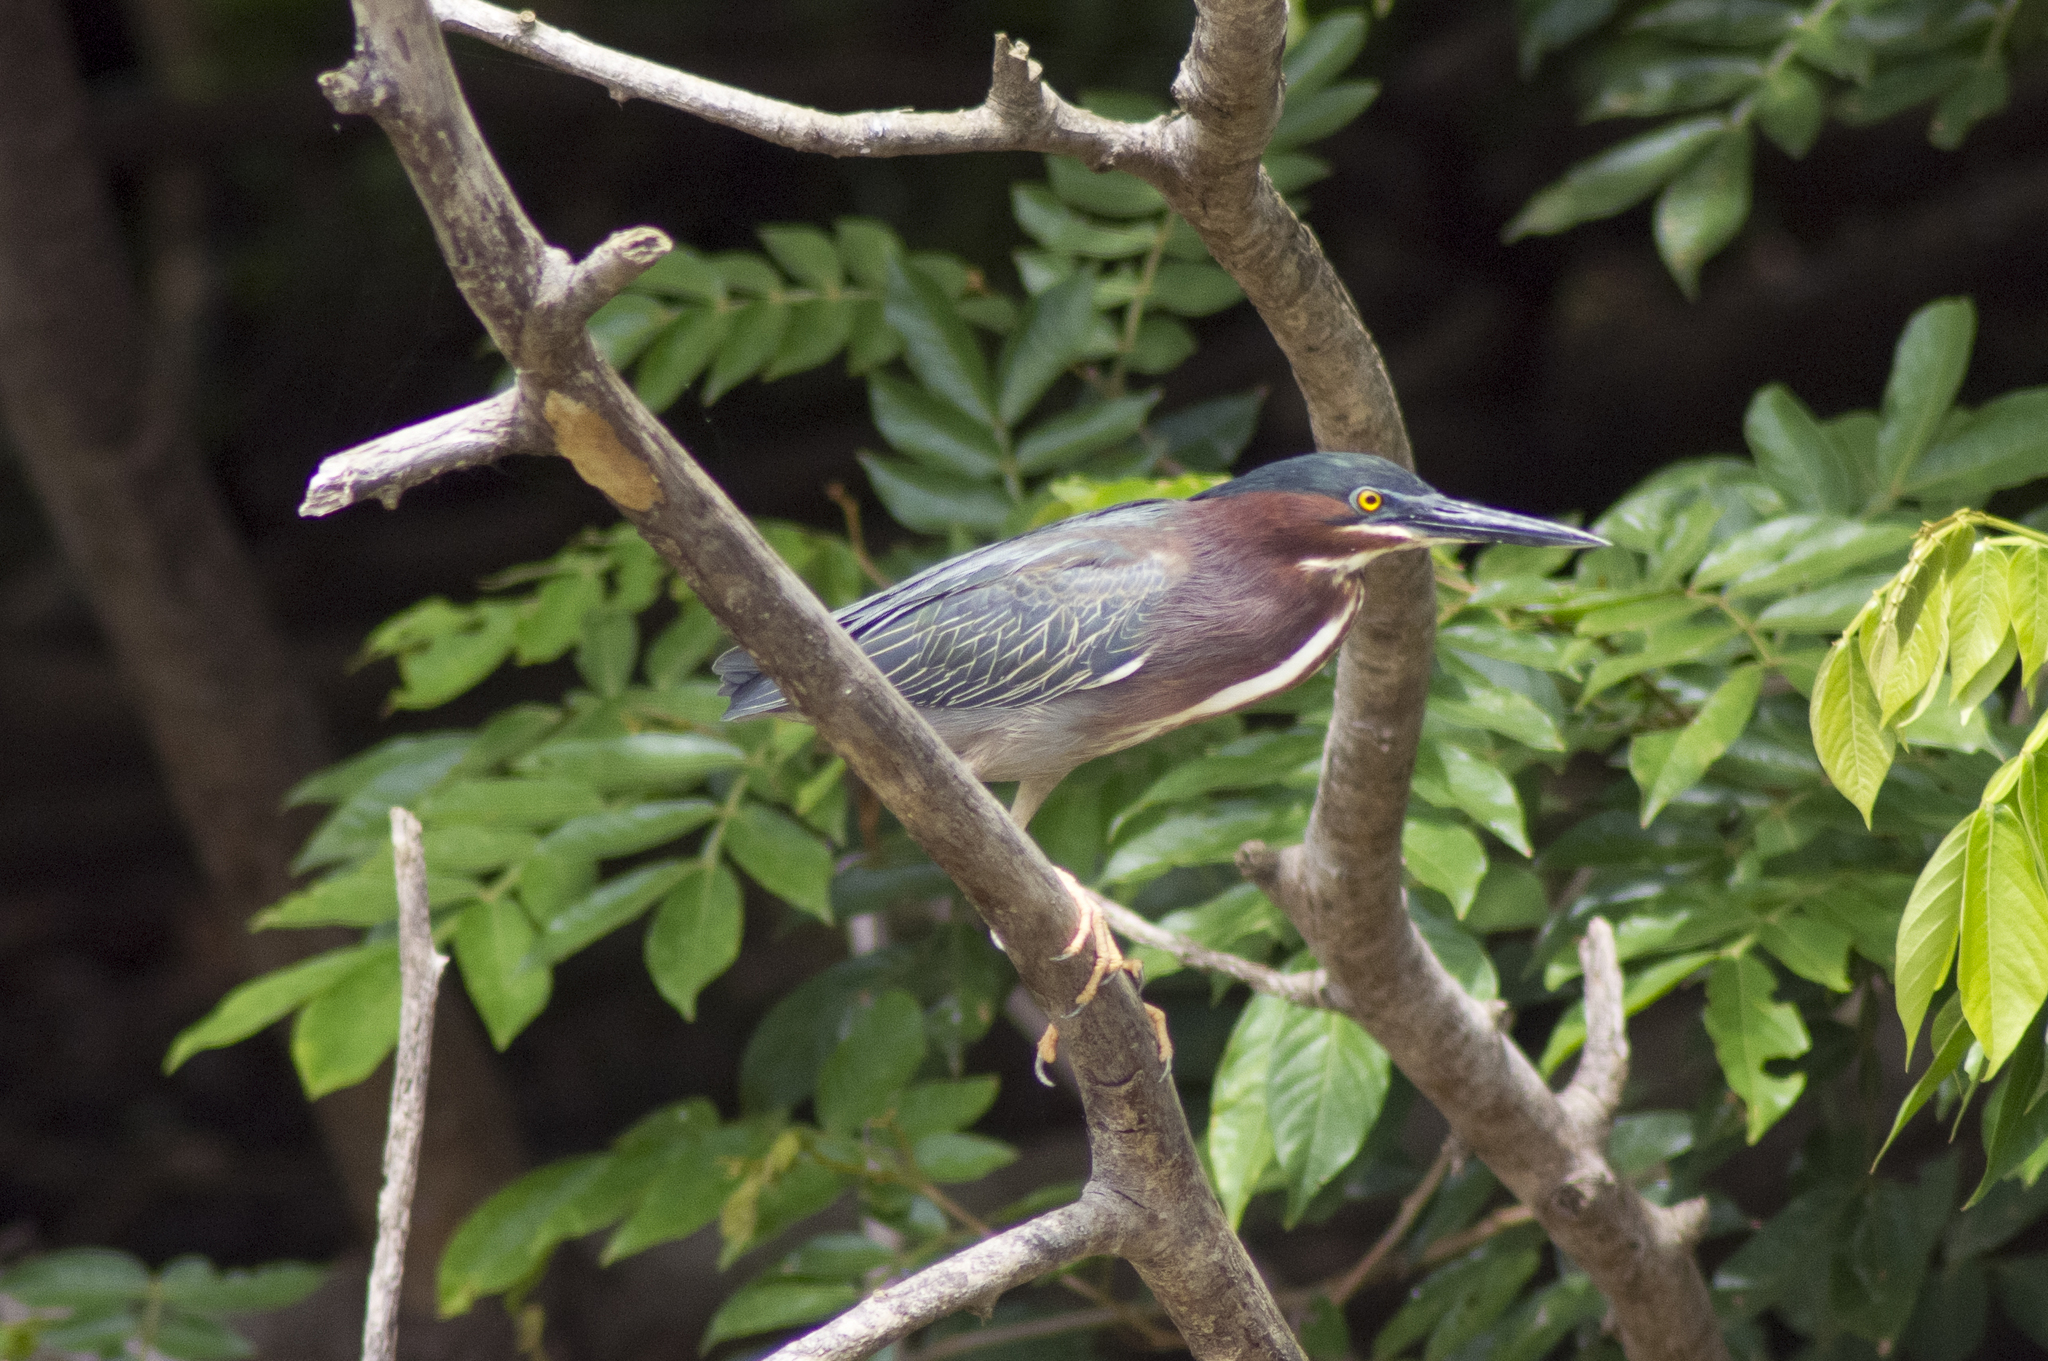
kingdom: Animalia
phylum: Chordata
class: Aves
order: Pelecaniformes
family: Ardeidae
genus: Butorides
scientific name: Butorides virescens
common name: Green heron
